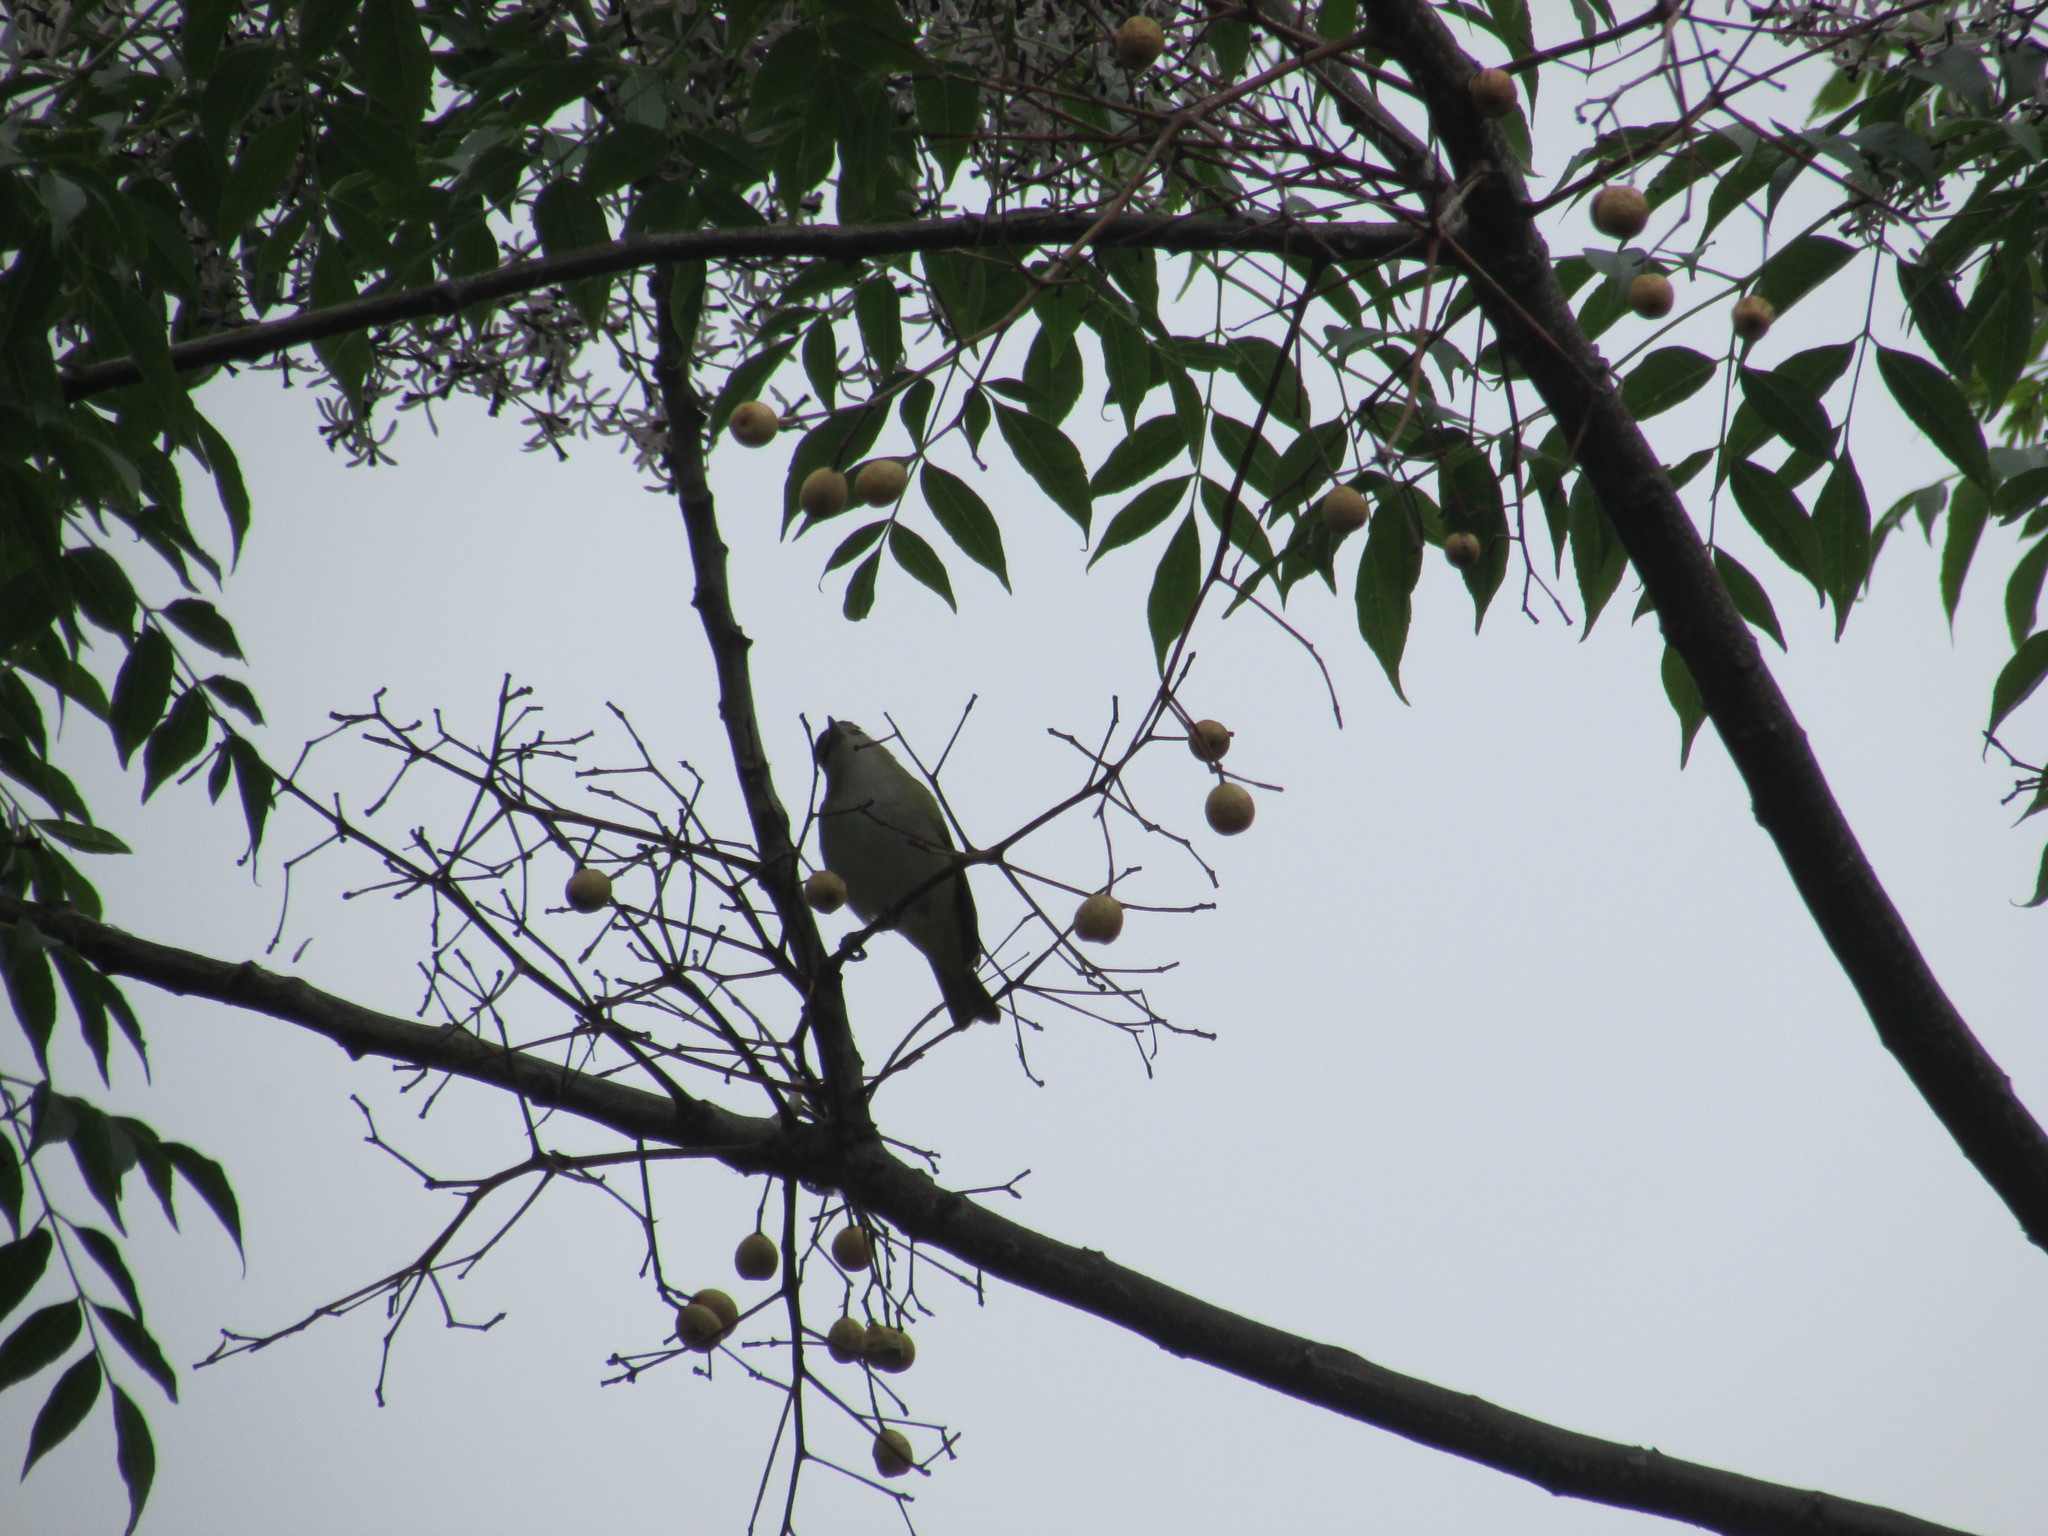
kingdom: Animalia
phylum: Chordata
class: Aves
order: Passeriformes
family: Vireonidae
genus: Vireo
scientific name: Vireo olivaceus
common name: Red-eyed vireo
